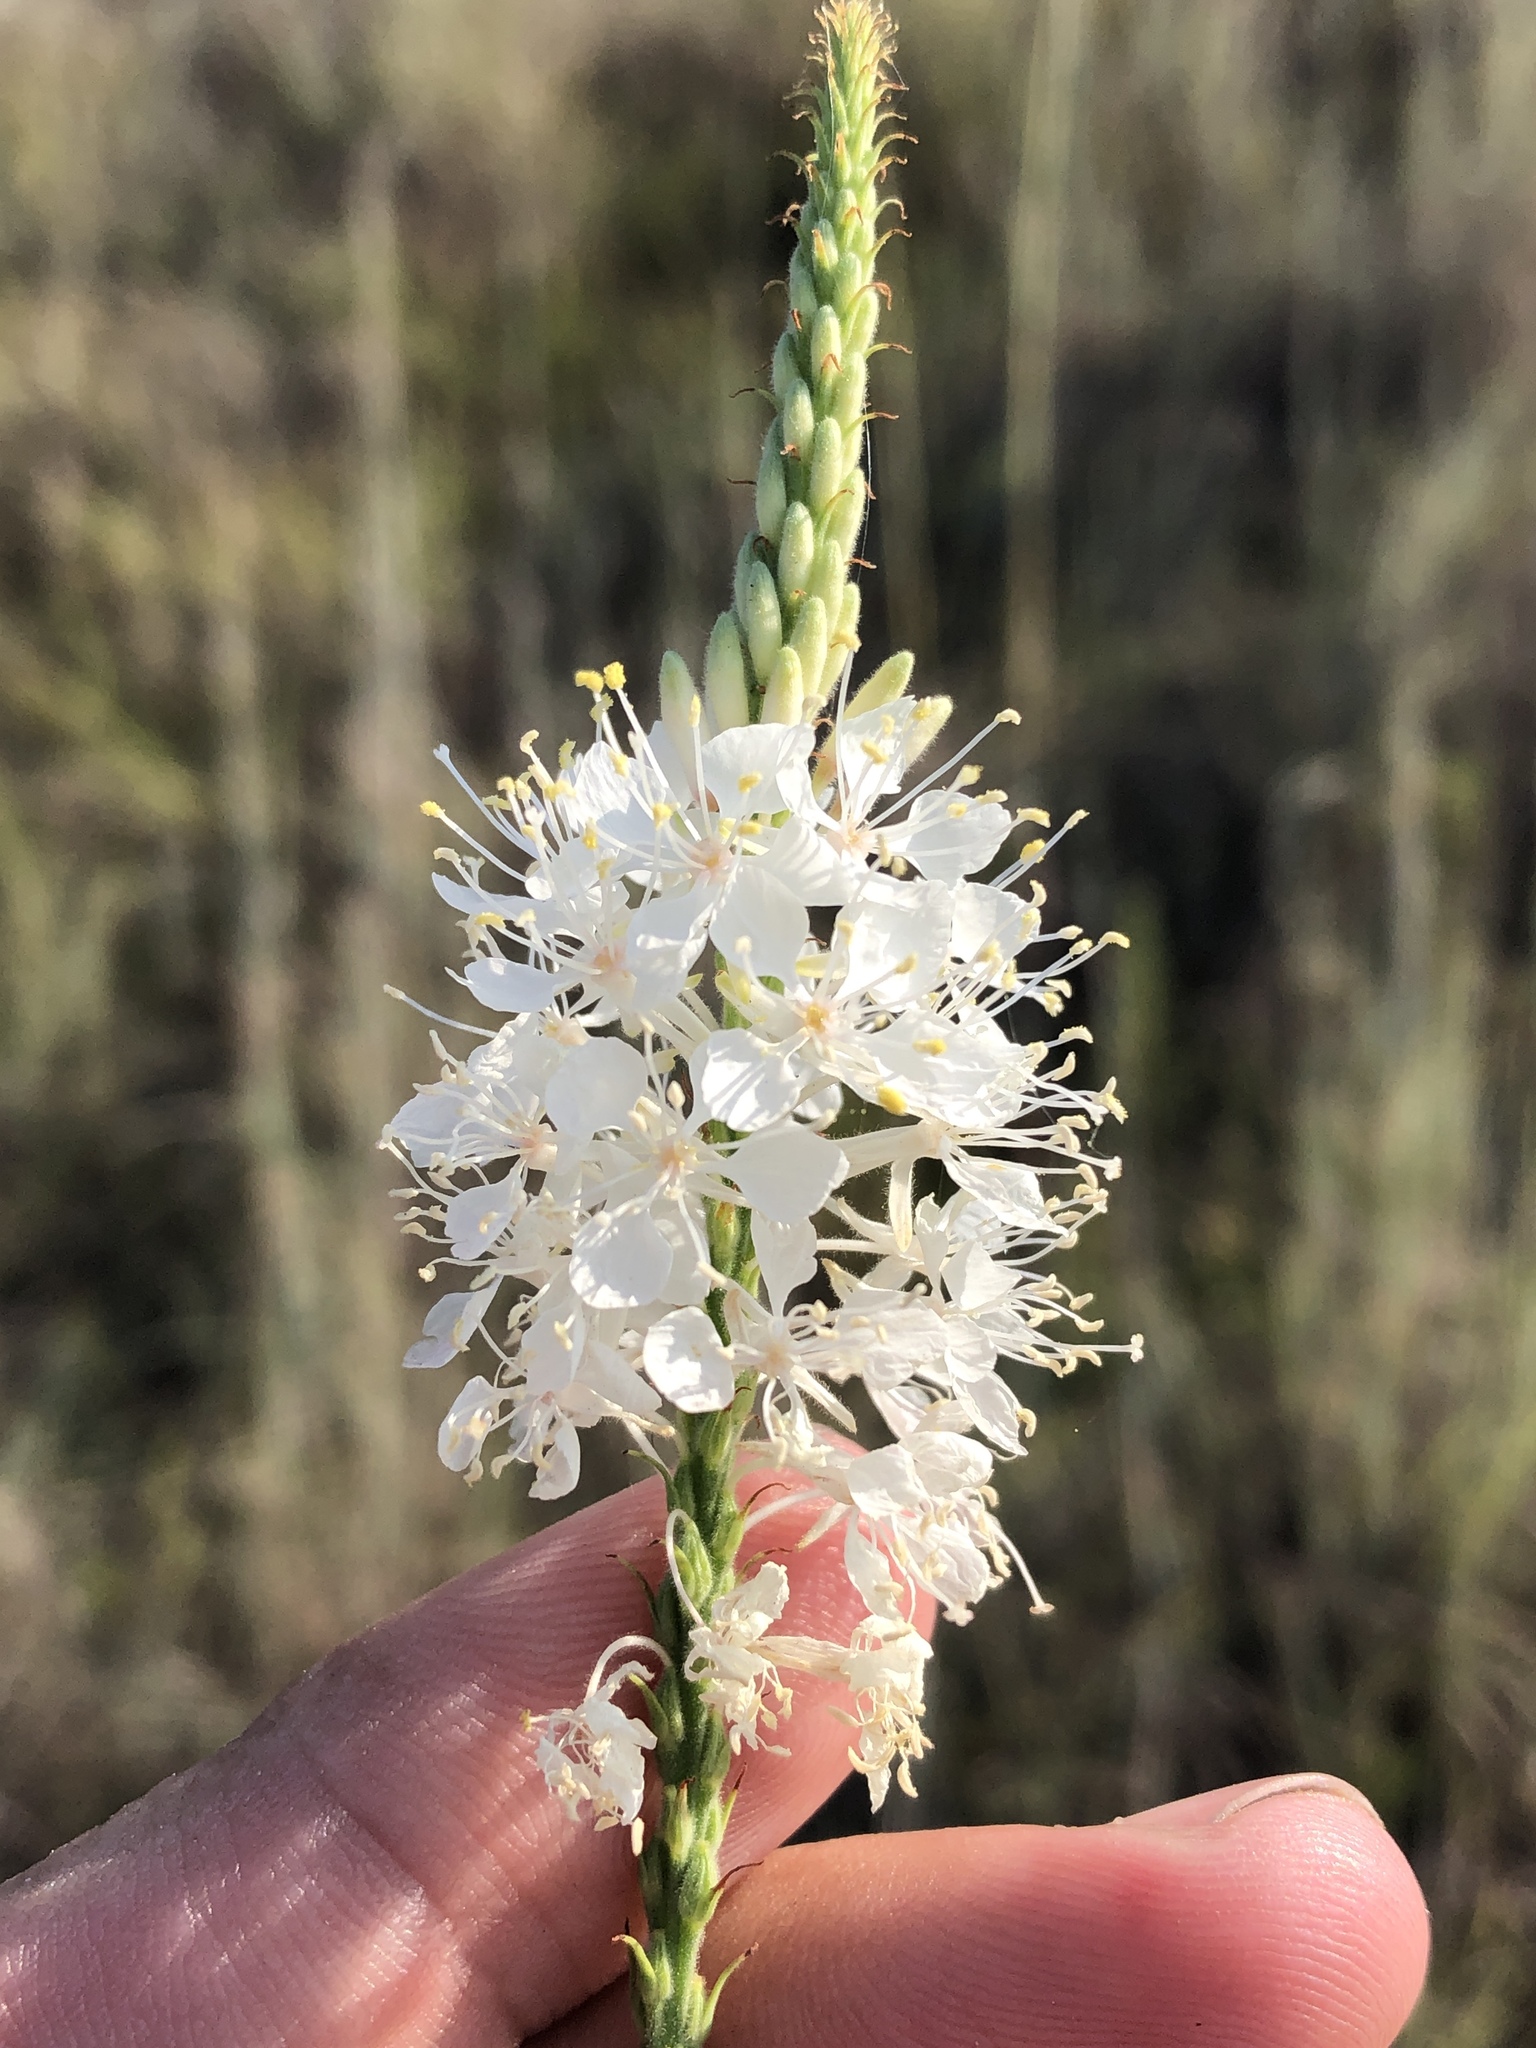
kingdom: Plantae
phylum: Tracheophyta
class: Magnoliopsida
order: Myrtales
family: Onagraceae
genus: Oenothera
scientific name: Oenothera glaucifolia
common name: False gaura
